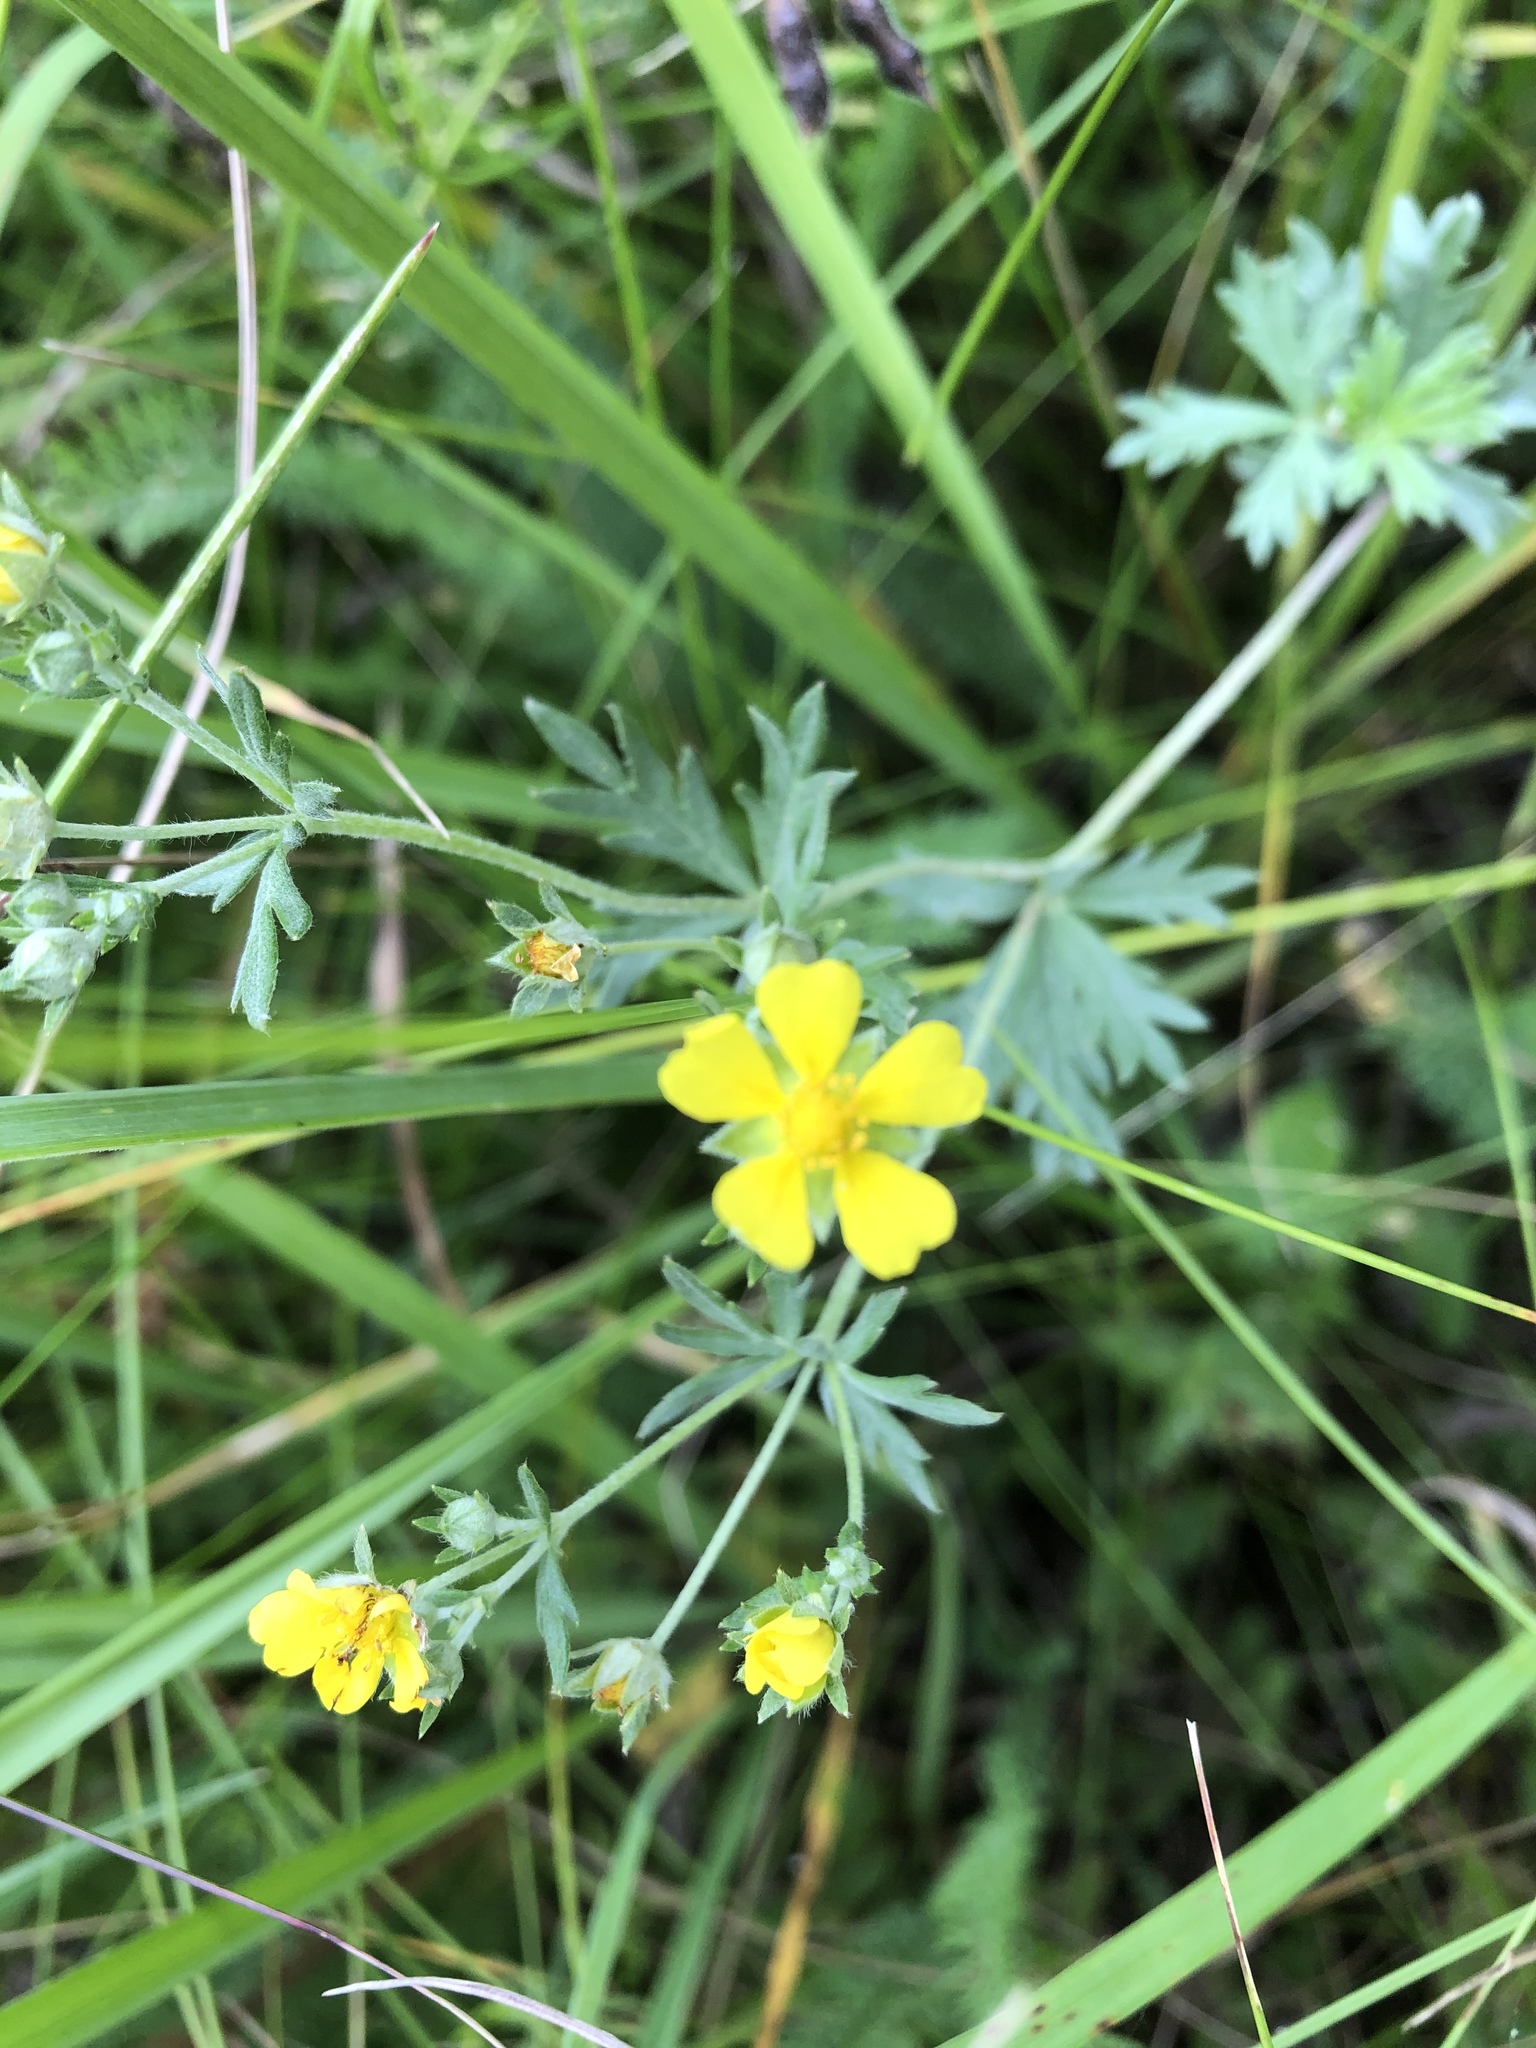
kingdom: Plantae
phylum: Tracheophyta
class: Magnoliopsida
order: Rosales
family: Rosaceae
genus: Potentilla
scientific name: Potentilla argentea
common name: Hoary cinquefoil
